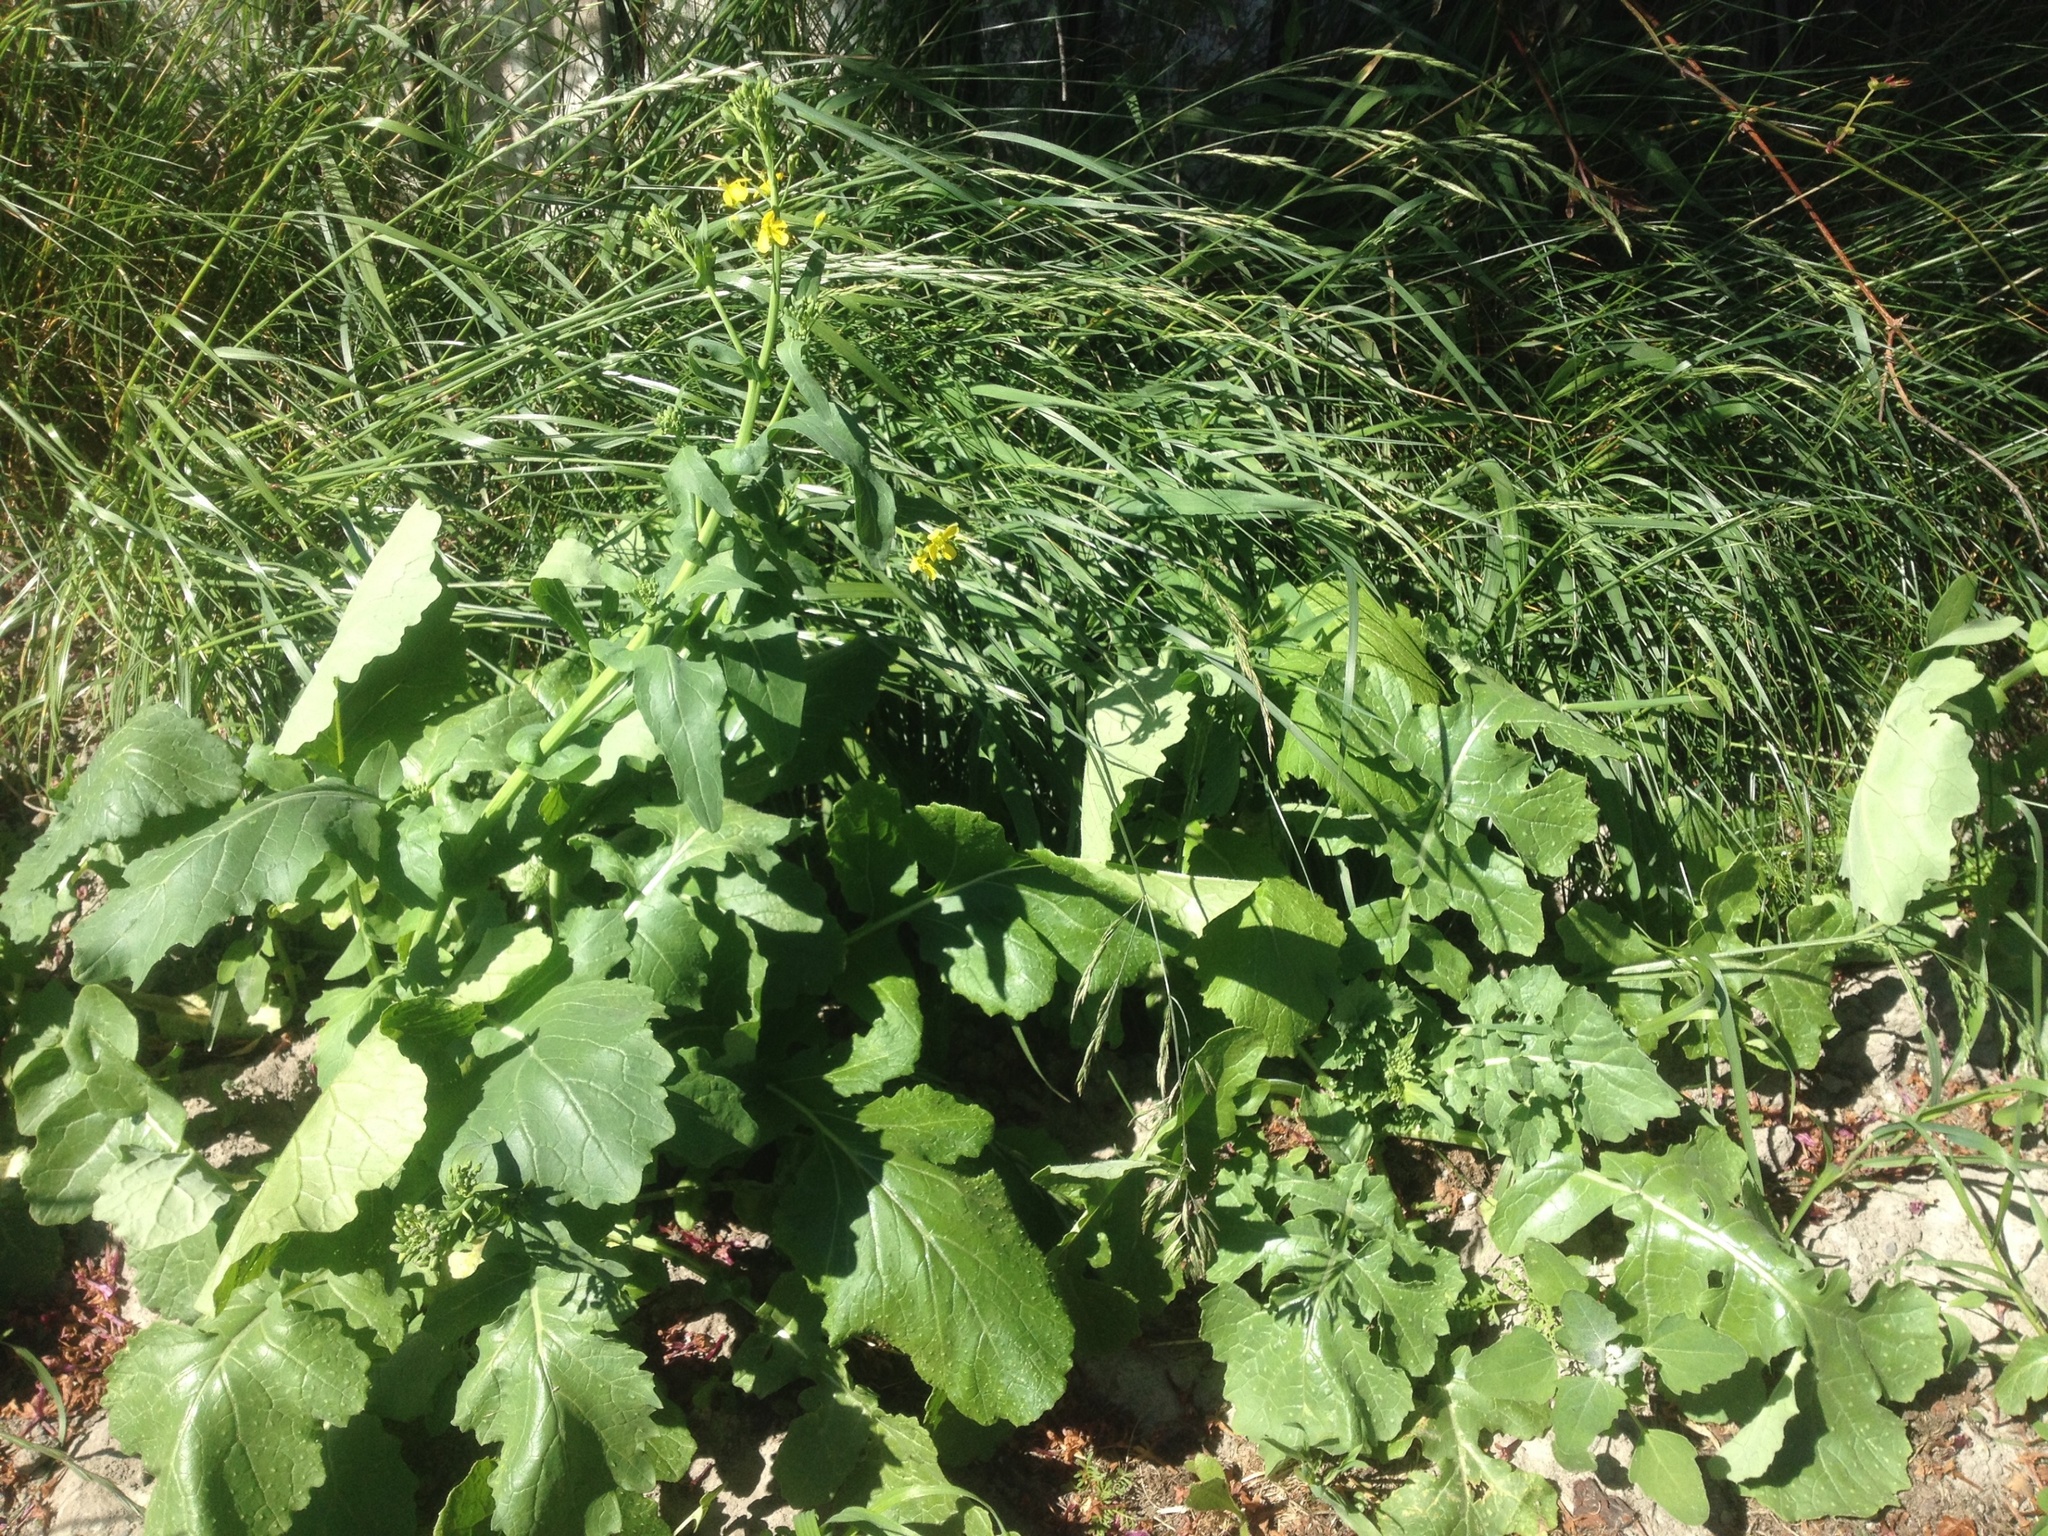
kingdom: Plantae
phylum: Tracheophyta
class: Magnoliopsida
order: Brassicales
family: Brassicaceae
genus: Brassica
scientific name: Brassica napus
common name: Rape
